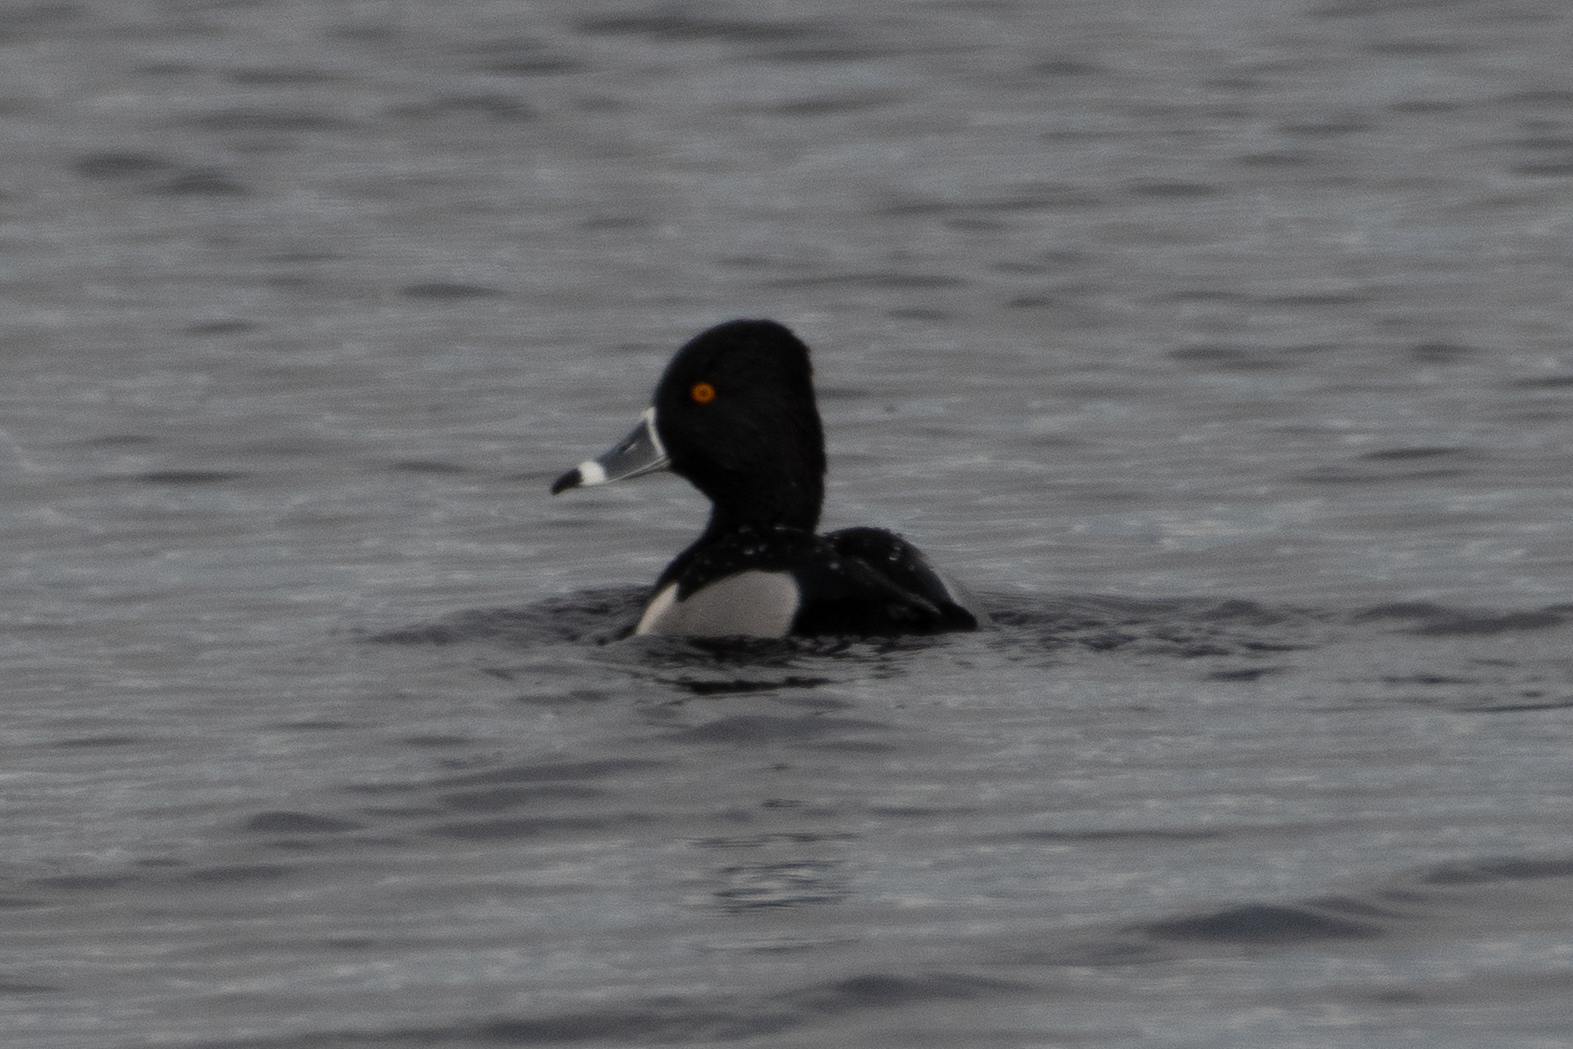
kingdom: Animalia
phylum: Chordata
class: Aves
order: Anseriformes
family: Anatidae
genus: Aythya
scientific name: Aythya collaris
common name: Ring-necked duck
